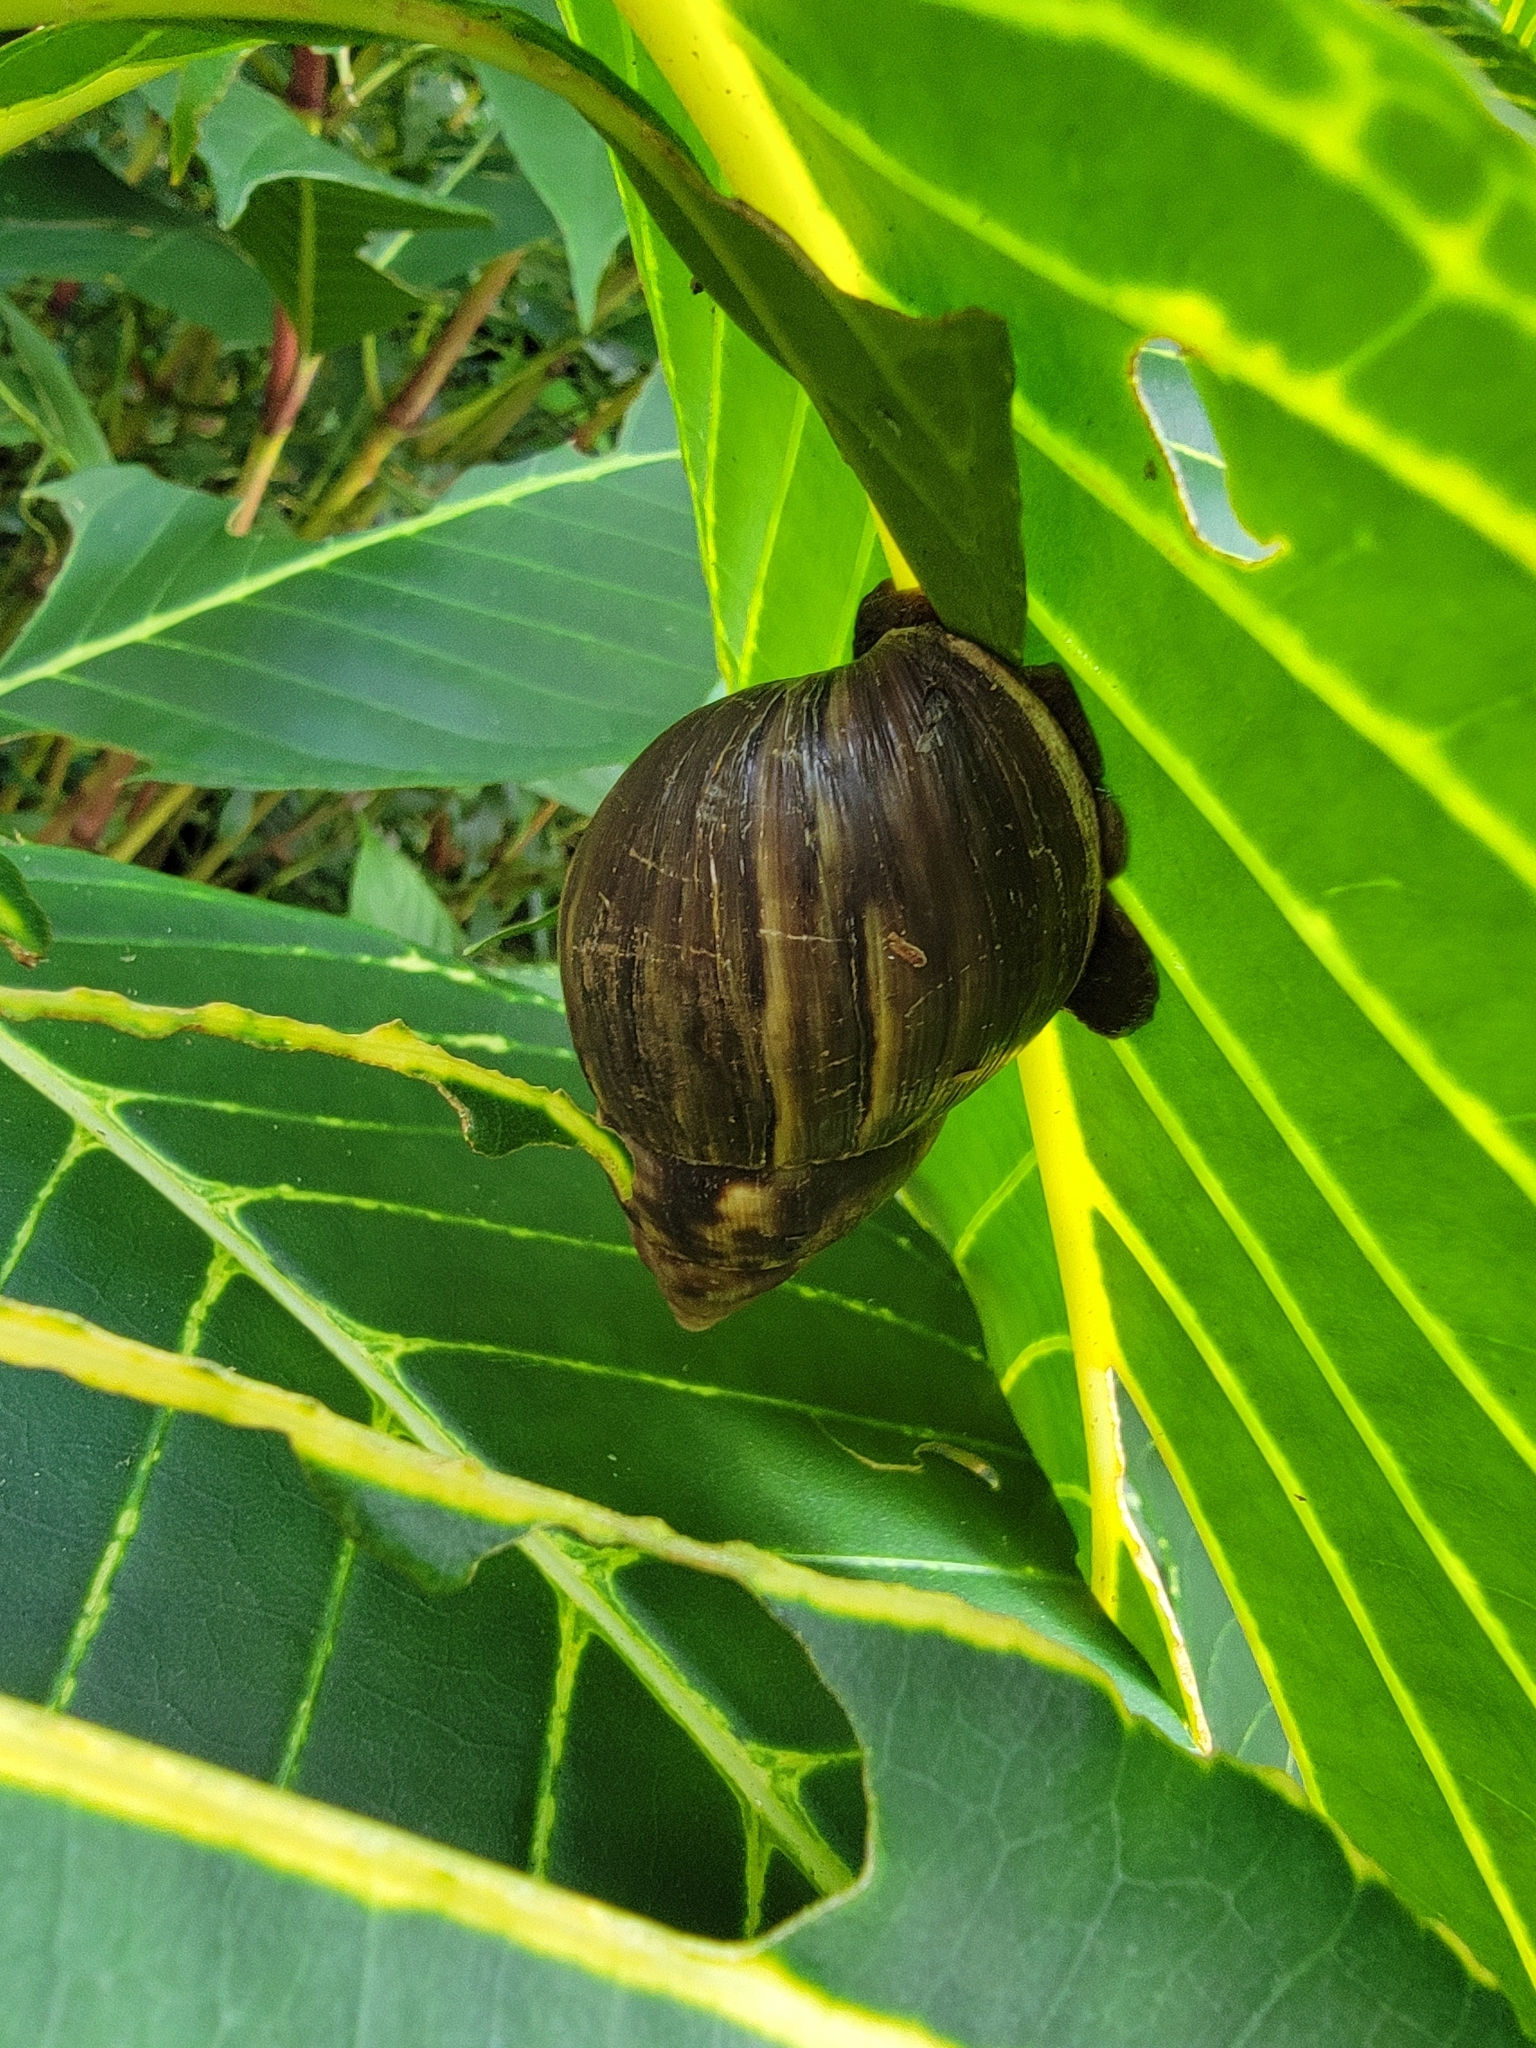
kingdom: Animalia
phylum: Mollusca
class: Gastropoda
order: Stylommatophora
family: Achatinidae
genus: Lissachatina
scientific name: Lissachatina fulica
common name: Giant african snail
